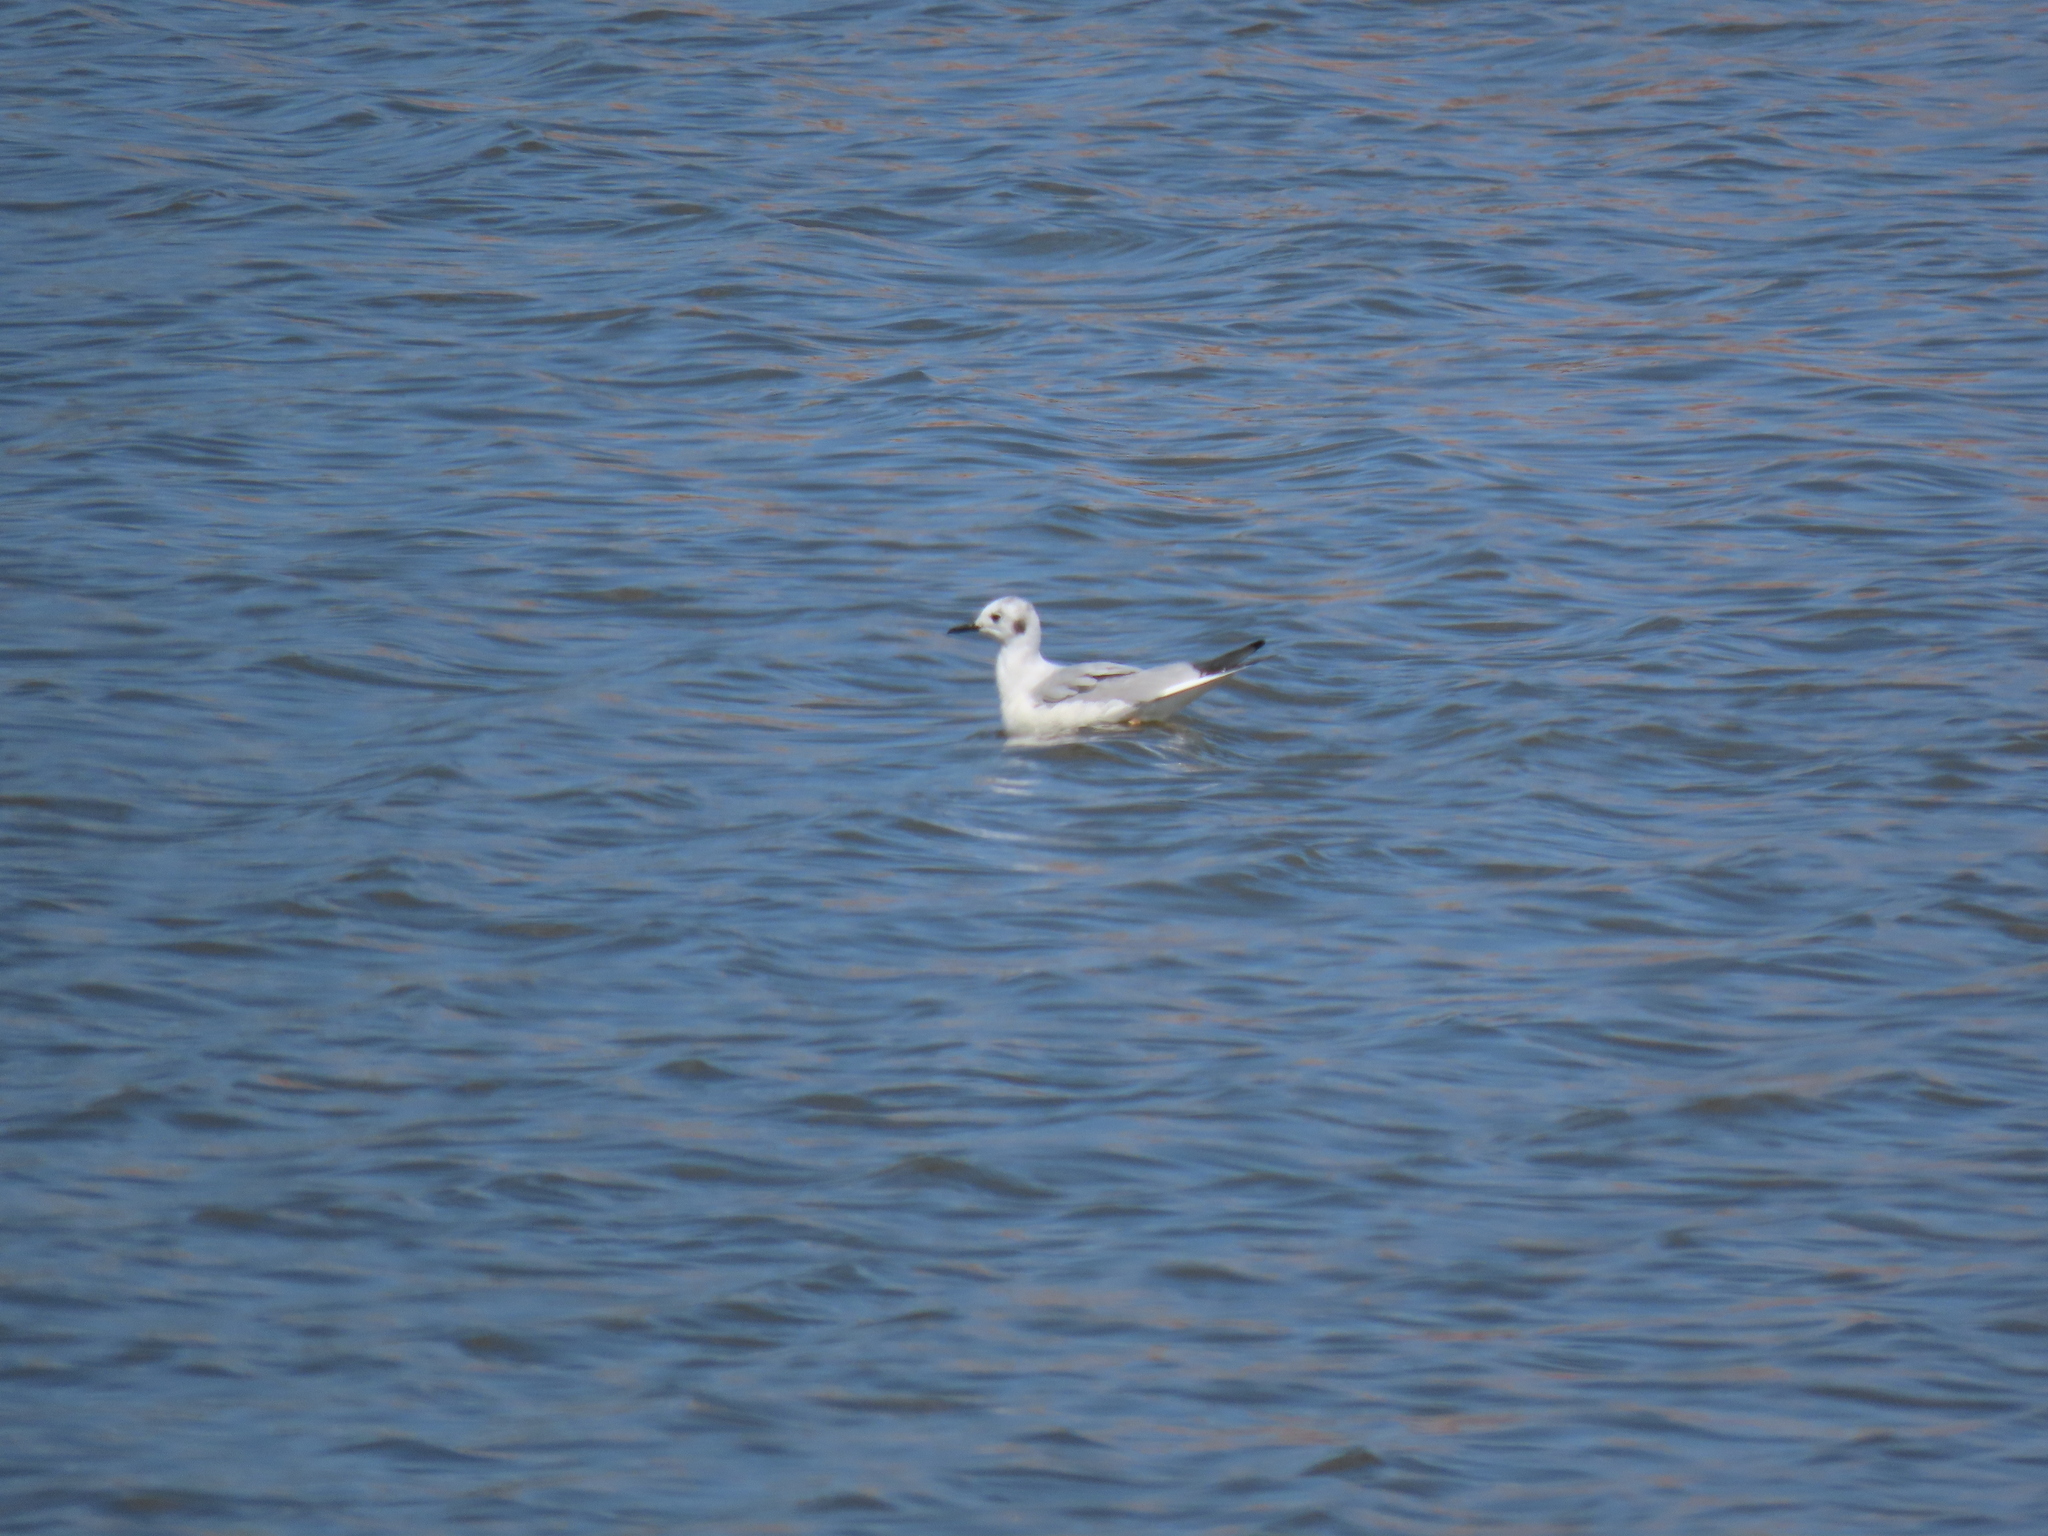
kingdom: Animalia
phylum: Chordata
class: Aves
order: Charadriiformes
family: Laridae
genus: Chroicocephalus
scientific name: Chroicocephalus philadelphia
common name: Bonaparte's gull
